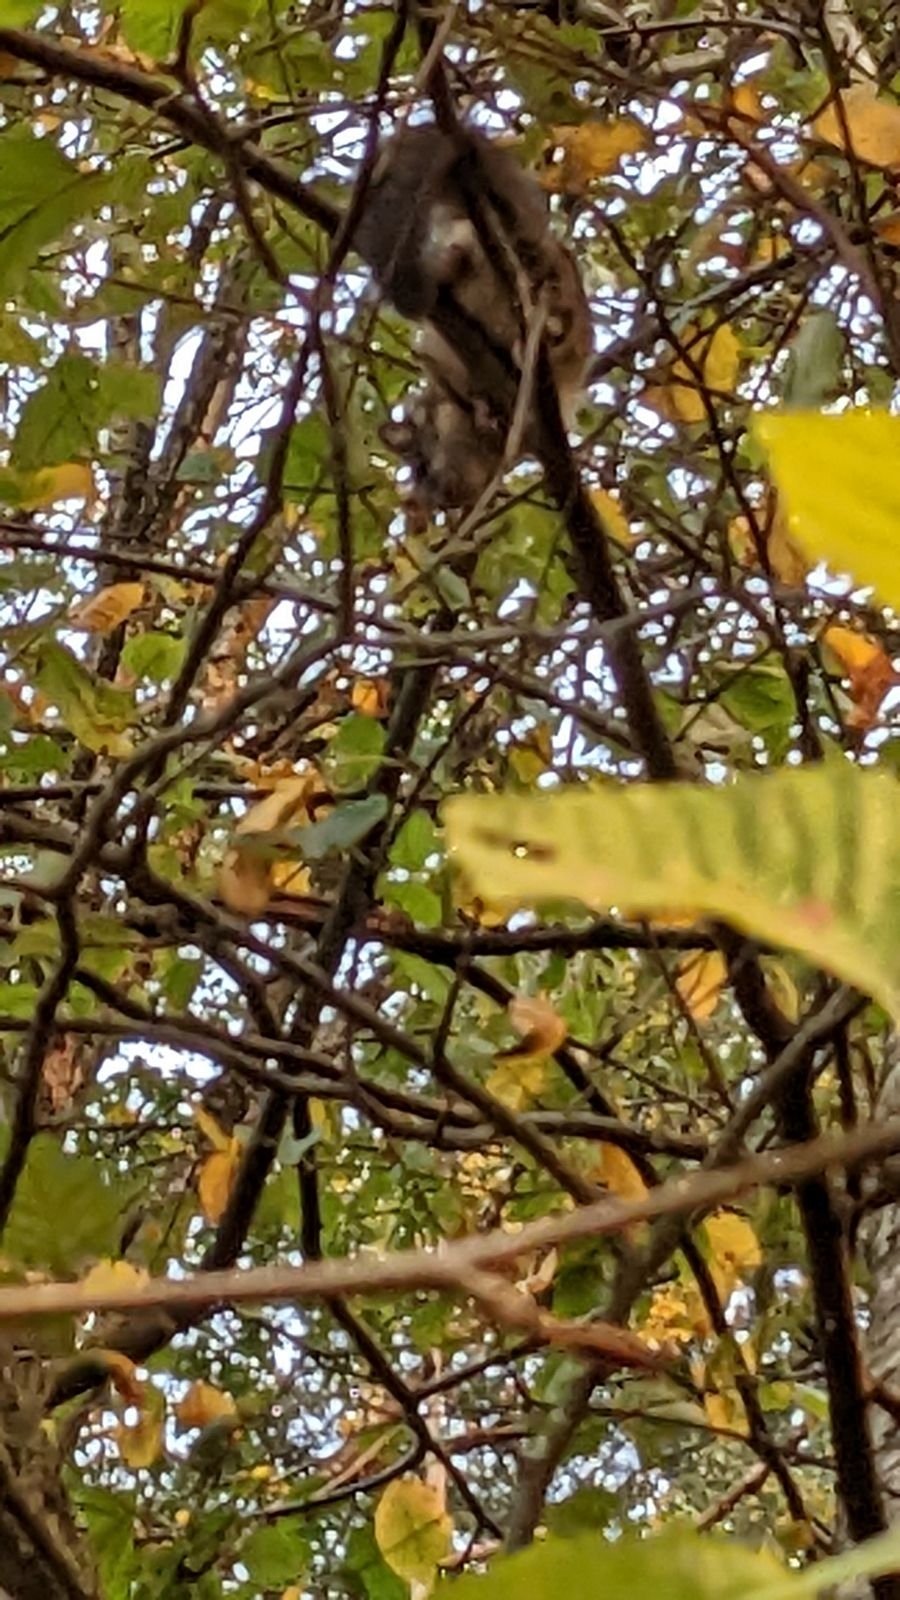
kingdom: Animalia
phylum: Chordata
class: Mammalia
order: Rodentia
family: Sciuridae
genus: Glaucomys
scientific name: Glaucomys sabrinus
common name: Northern flying squirrel
